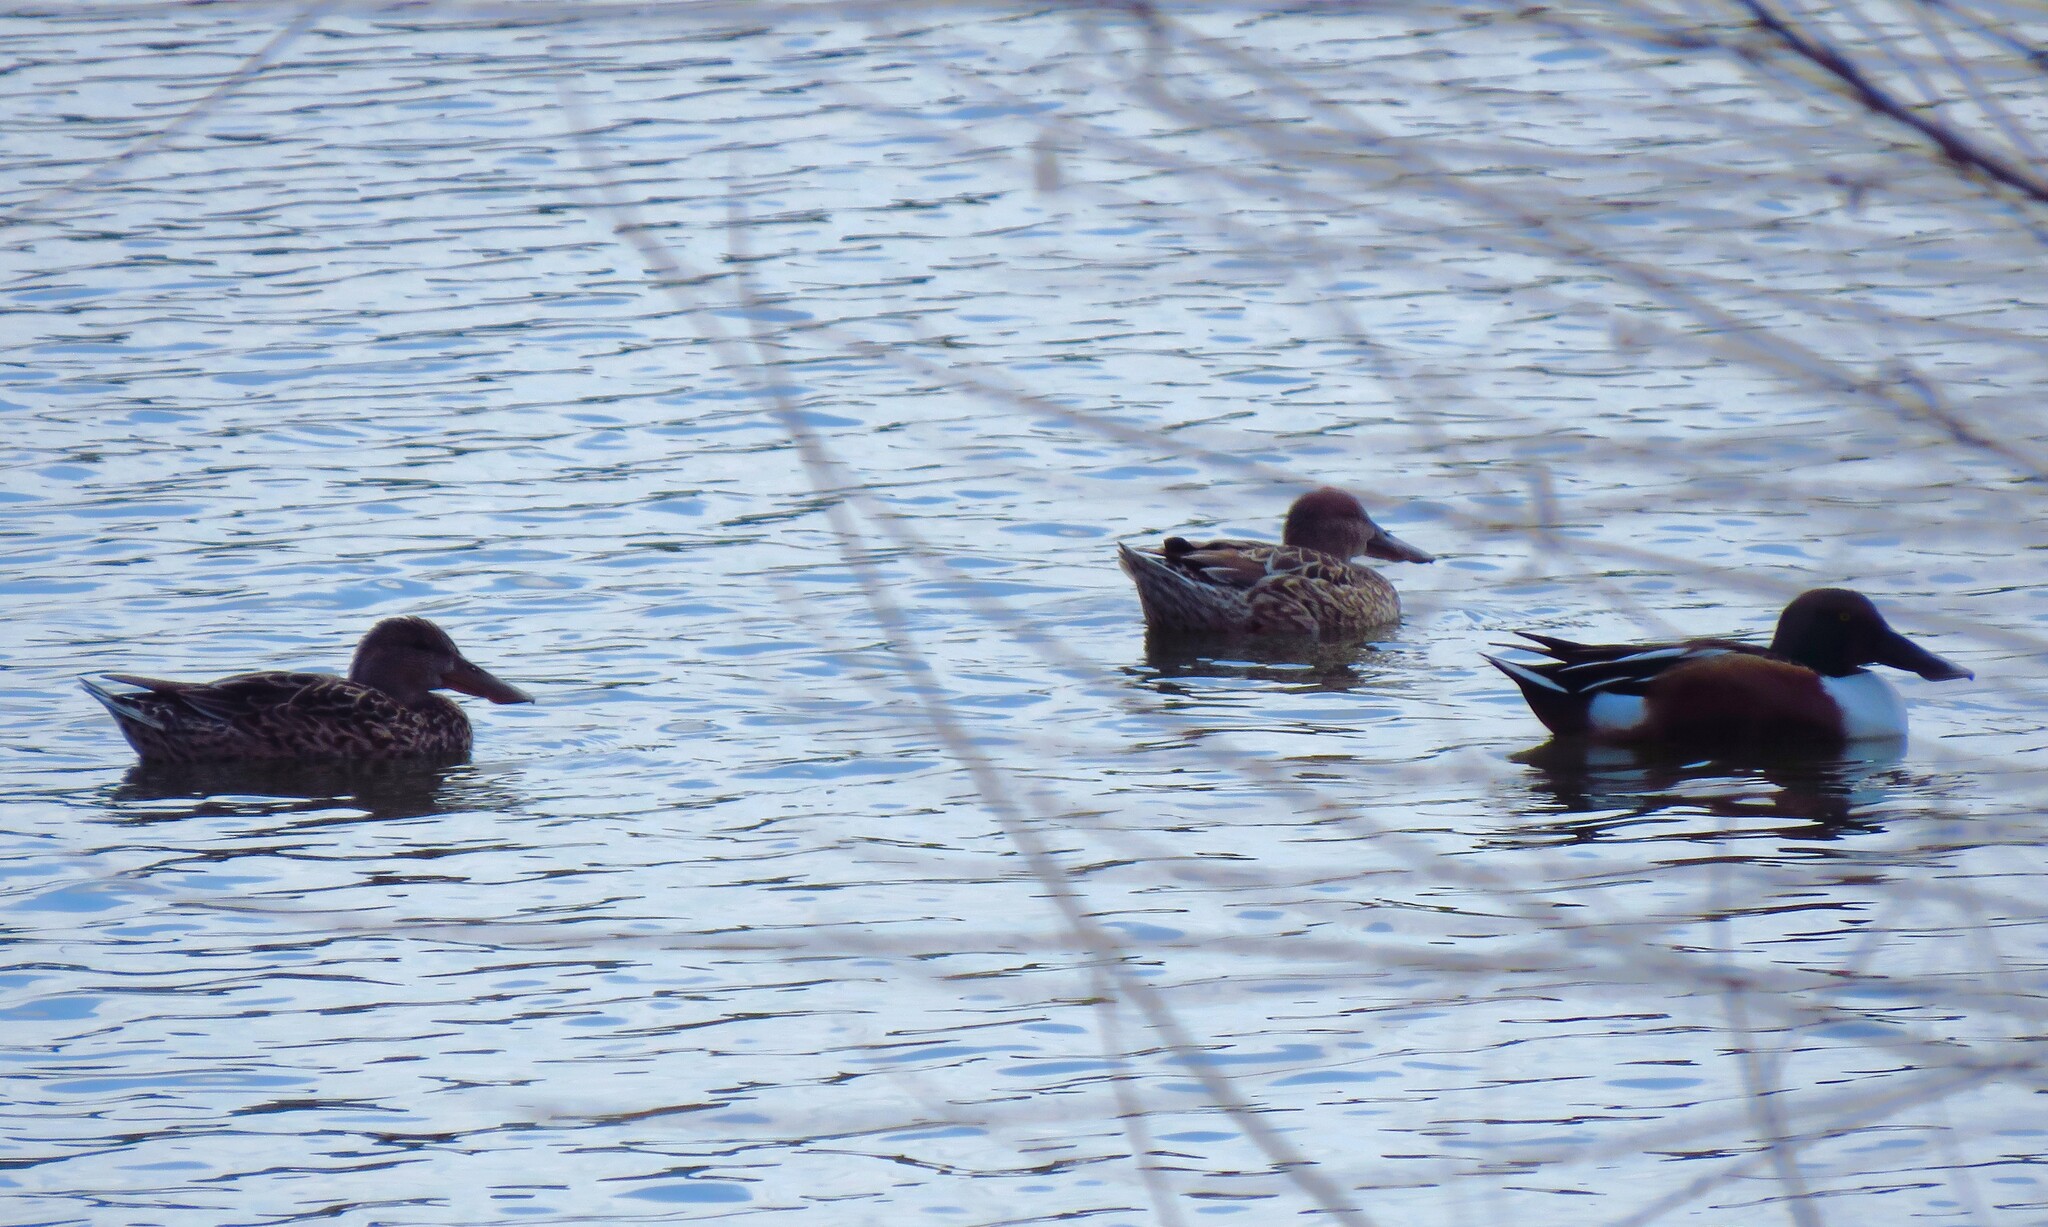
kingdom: Animalia
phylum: Chordata
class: Aves
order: Anseriformes
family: Anatidae
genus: Spatula
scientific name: Spatula clypeata
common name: Northern shoveler
